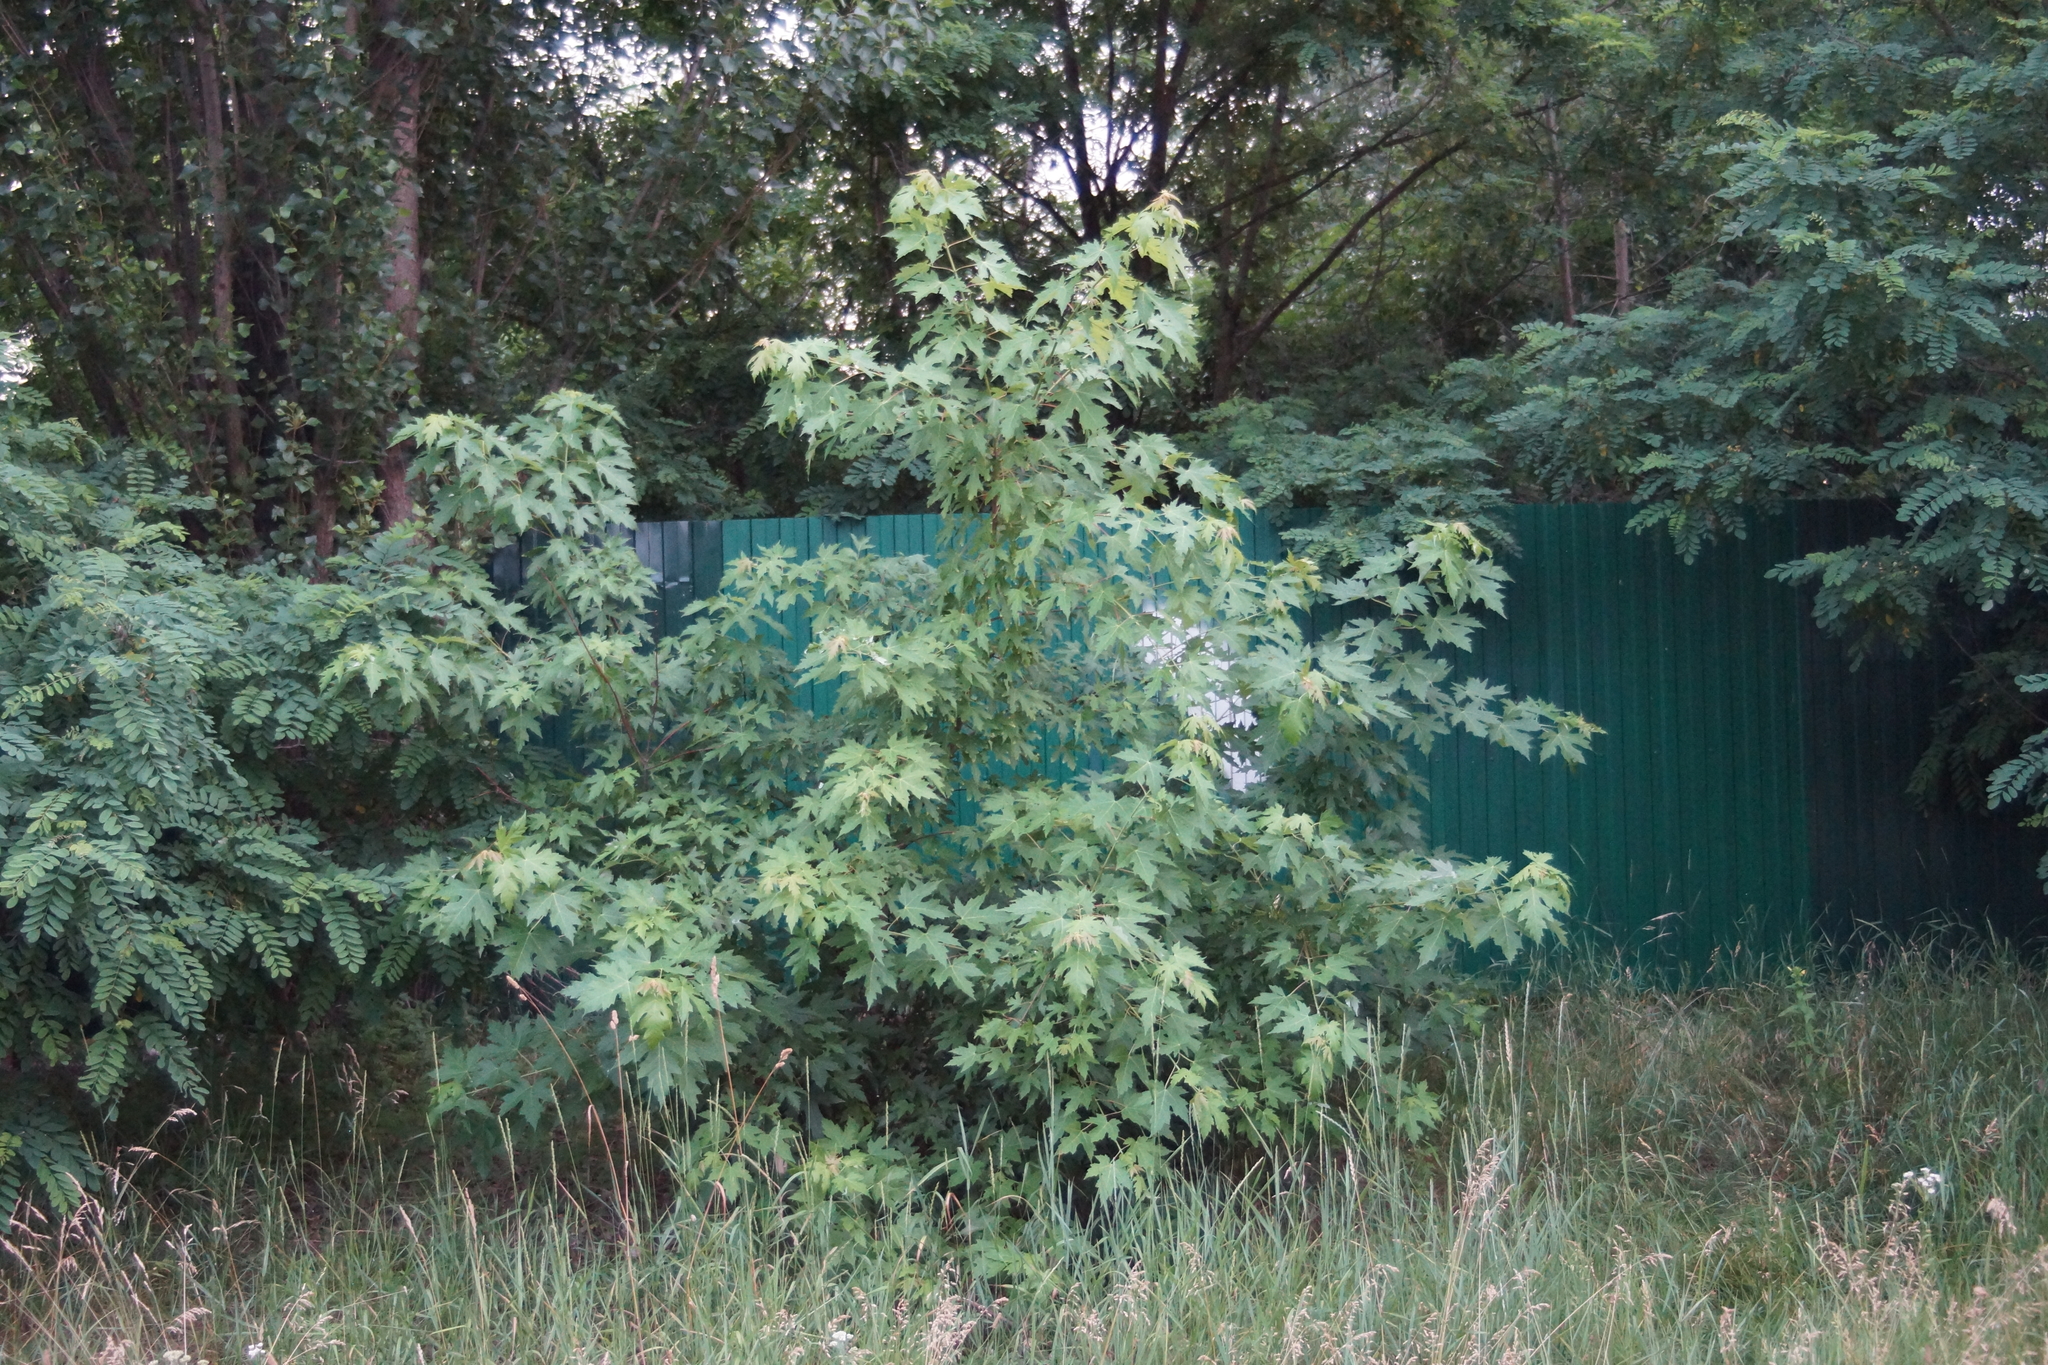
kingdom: Plantae
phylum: Tracheophyta
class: Magnoliopsida
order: Sapindales
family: Sapindaceae
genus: Acer
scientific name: Acer saccharinum
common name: Silver maple
